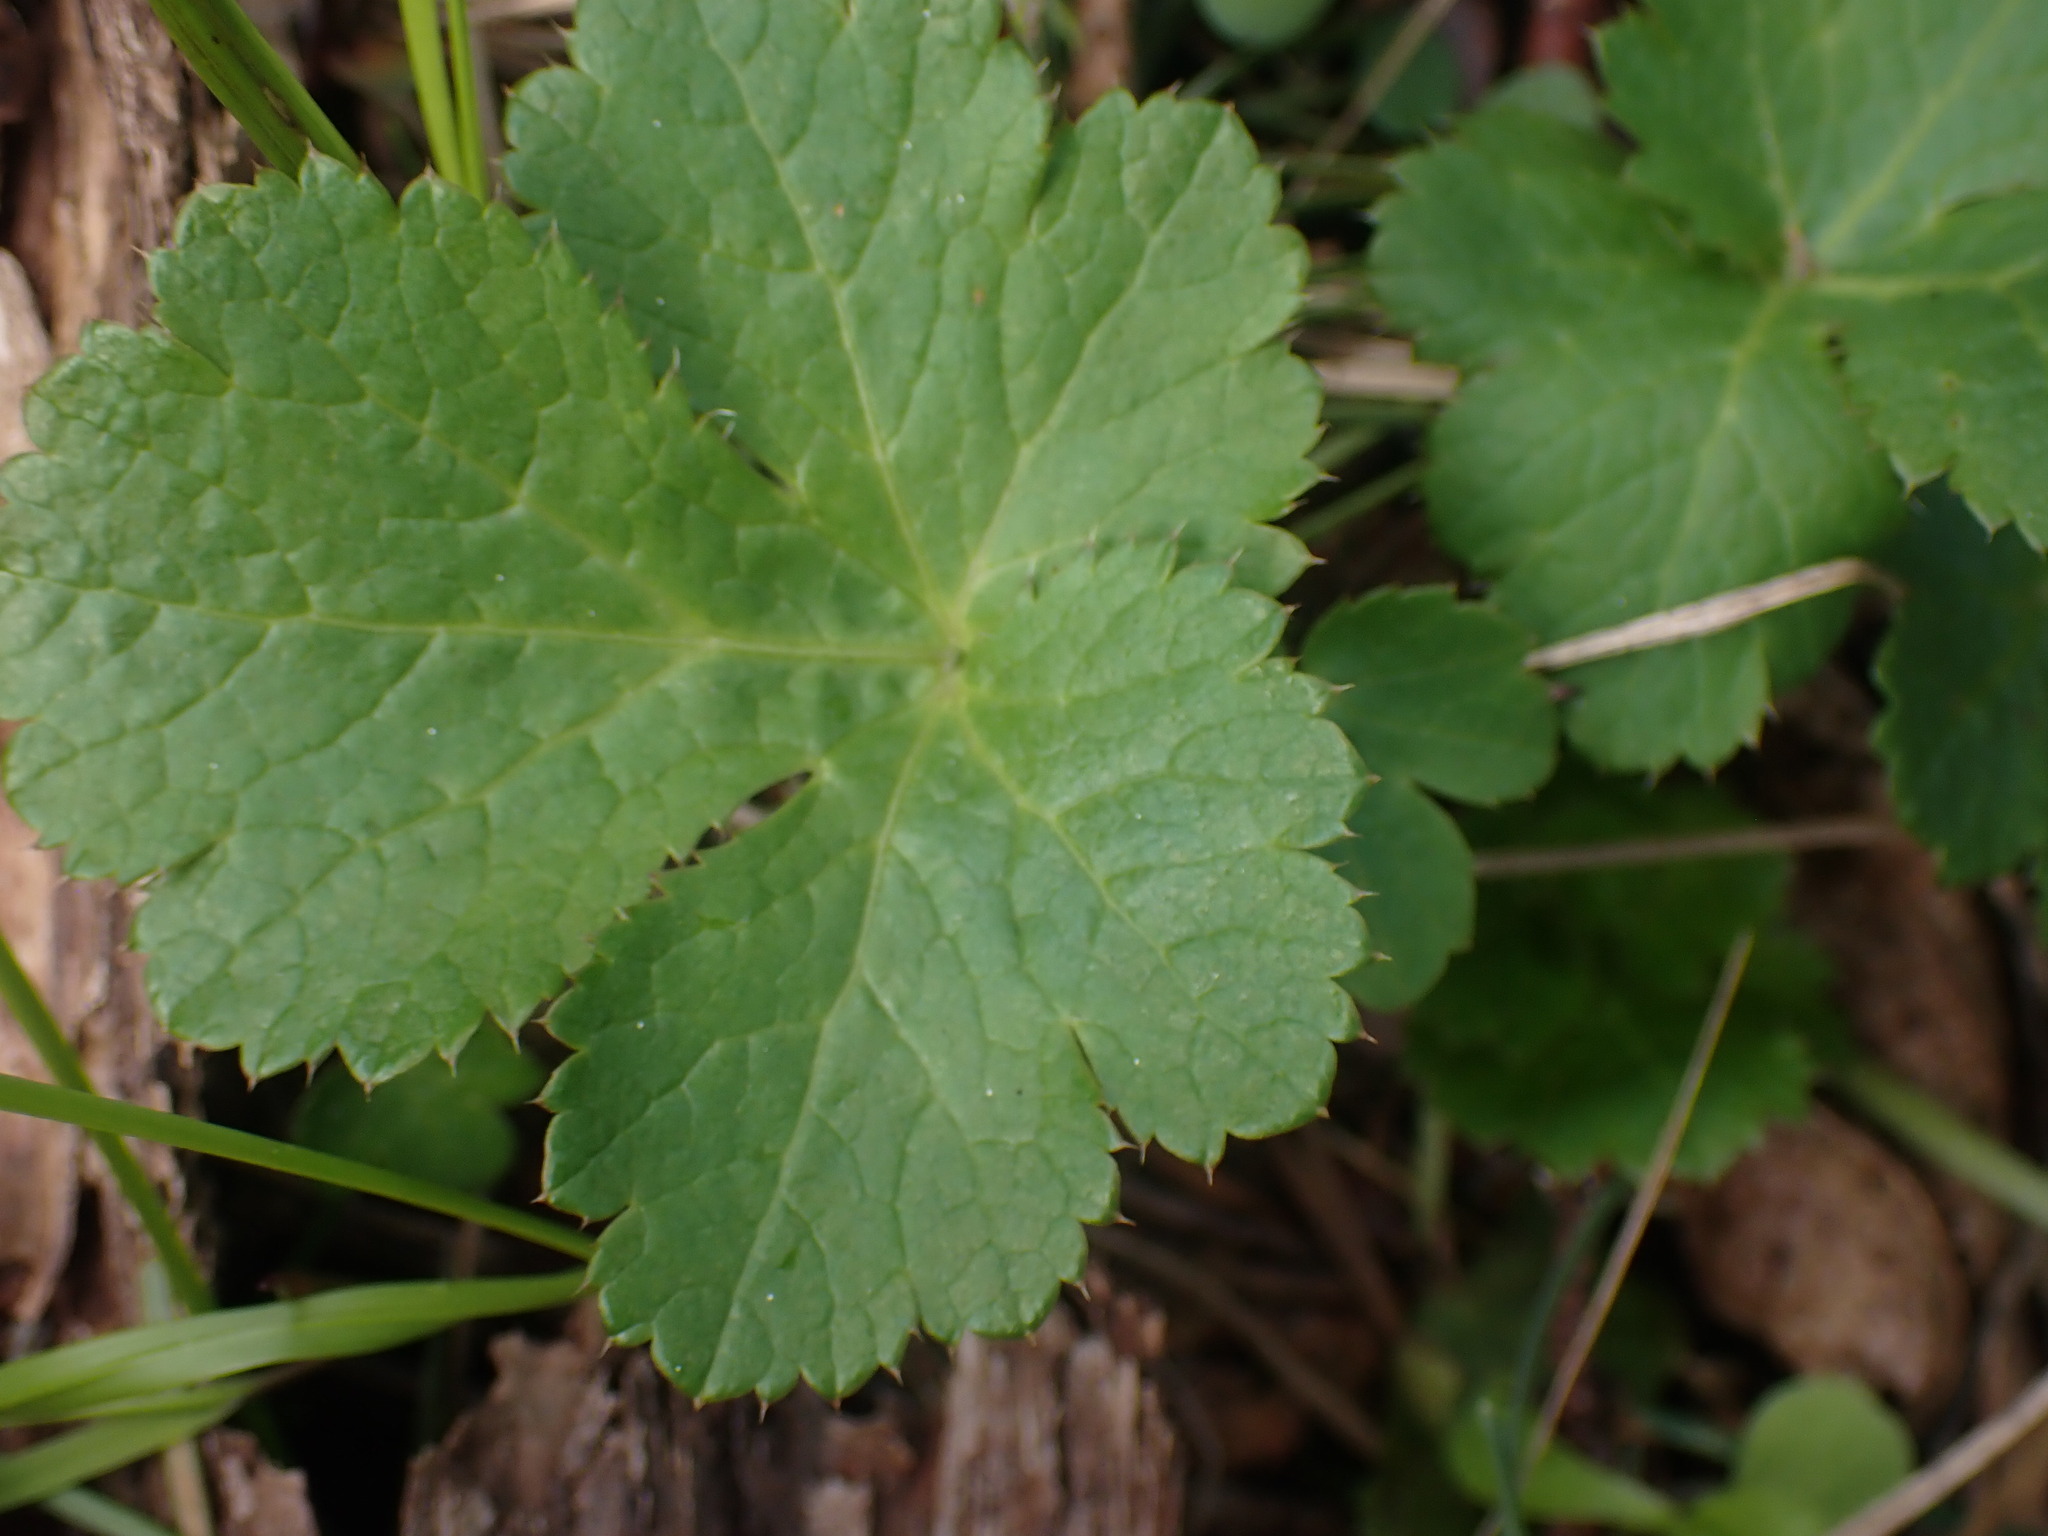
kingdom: Plantae
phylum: Tracheophyta
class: Magnoliopsida
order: Apiales
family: Apiaceae
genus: Sanicula
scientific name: Sanicula crassicaulis
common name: Western snakeroot
